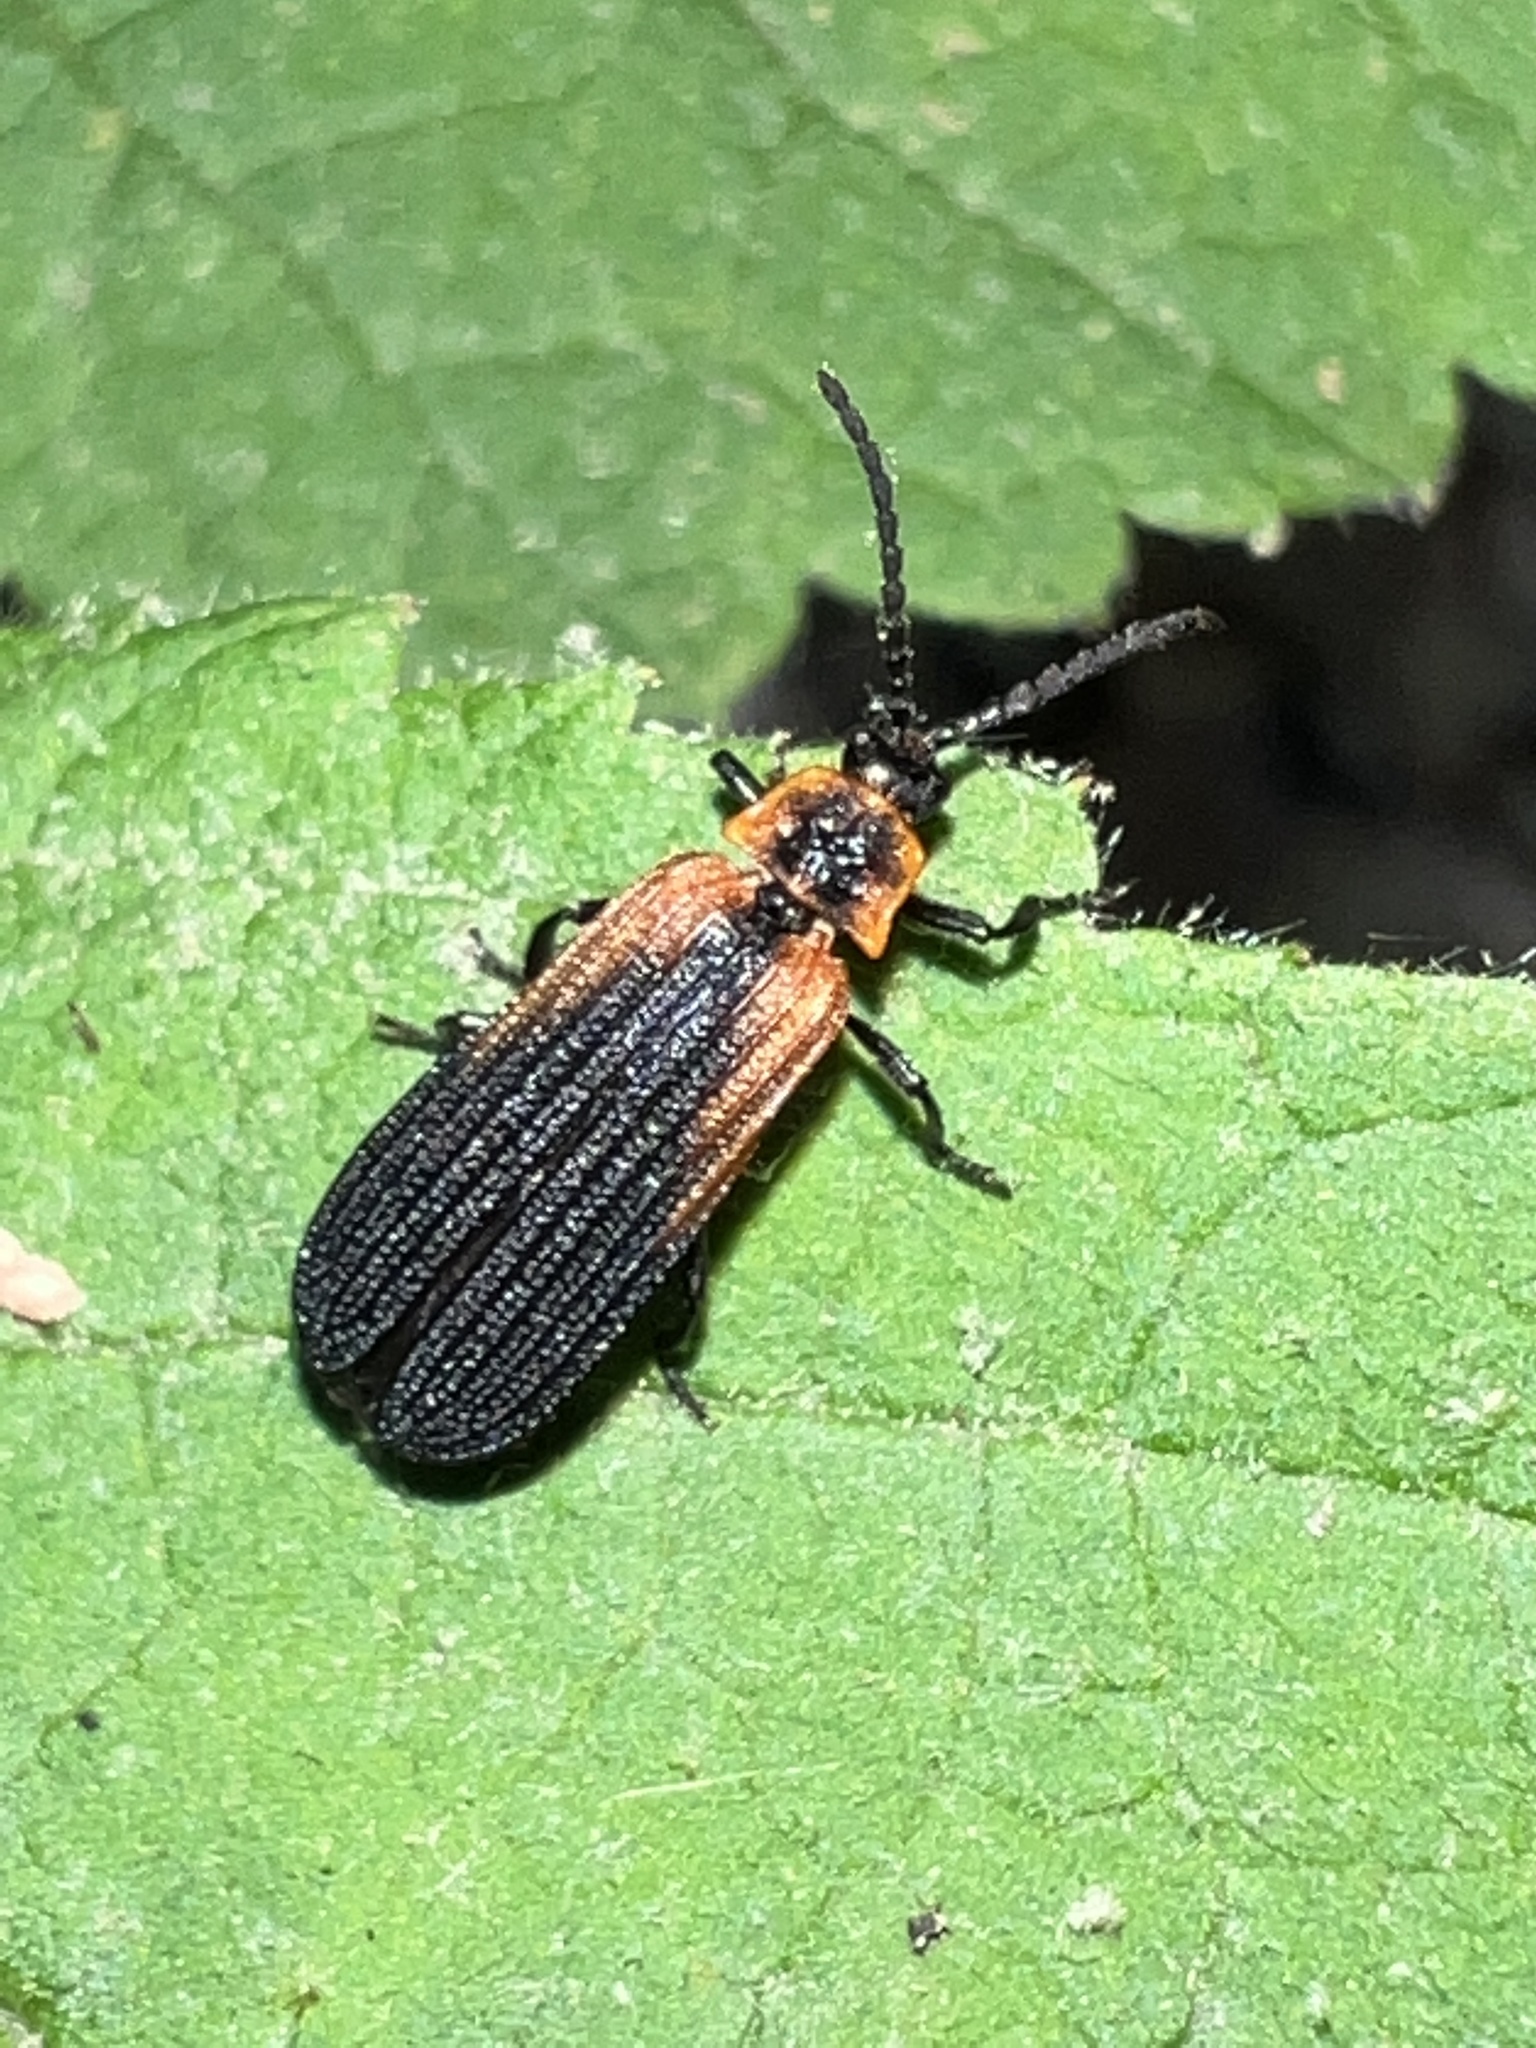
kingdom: Animalia
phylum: Arthropoda
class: Insecta
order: Coleoptera
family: Lycidae
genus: Eros
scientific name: Eros humeralis
